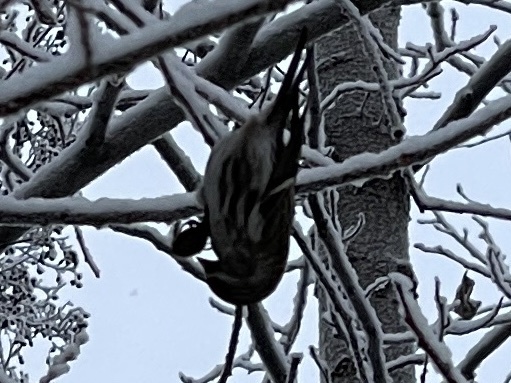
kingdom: Animalia
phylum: Chordata
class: Aves
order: Passeriformes
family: Fringillidae
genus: Acanthis
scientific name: Acanthis flammea
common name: Common redpoll
